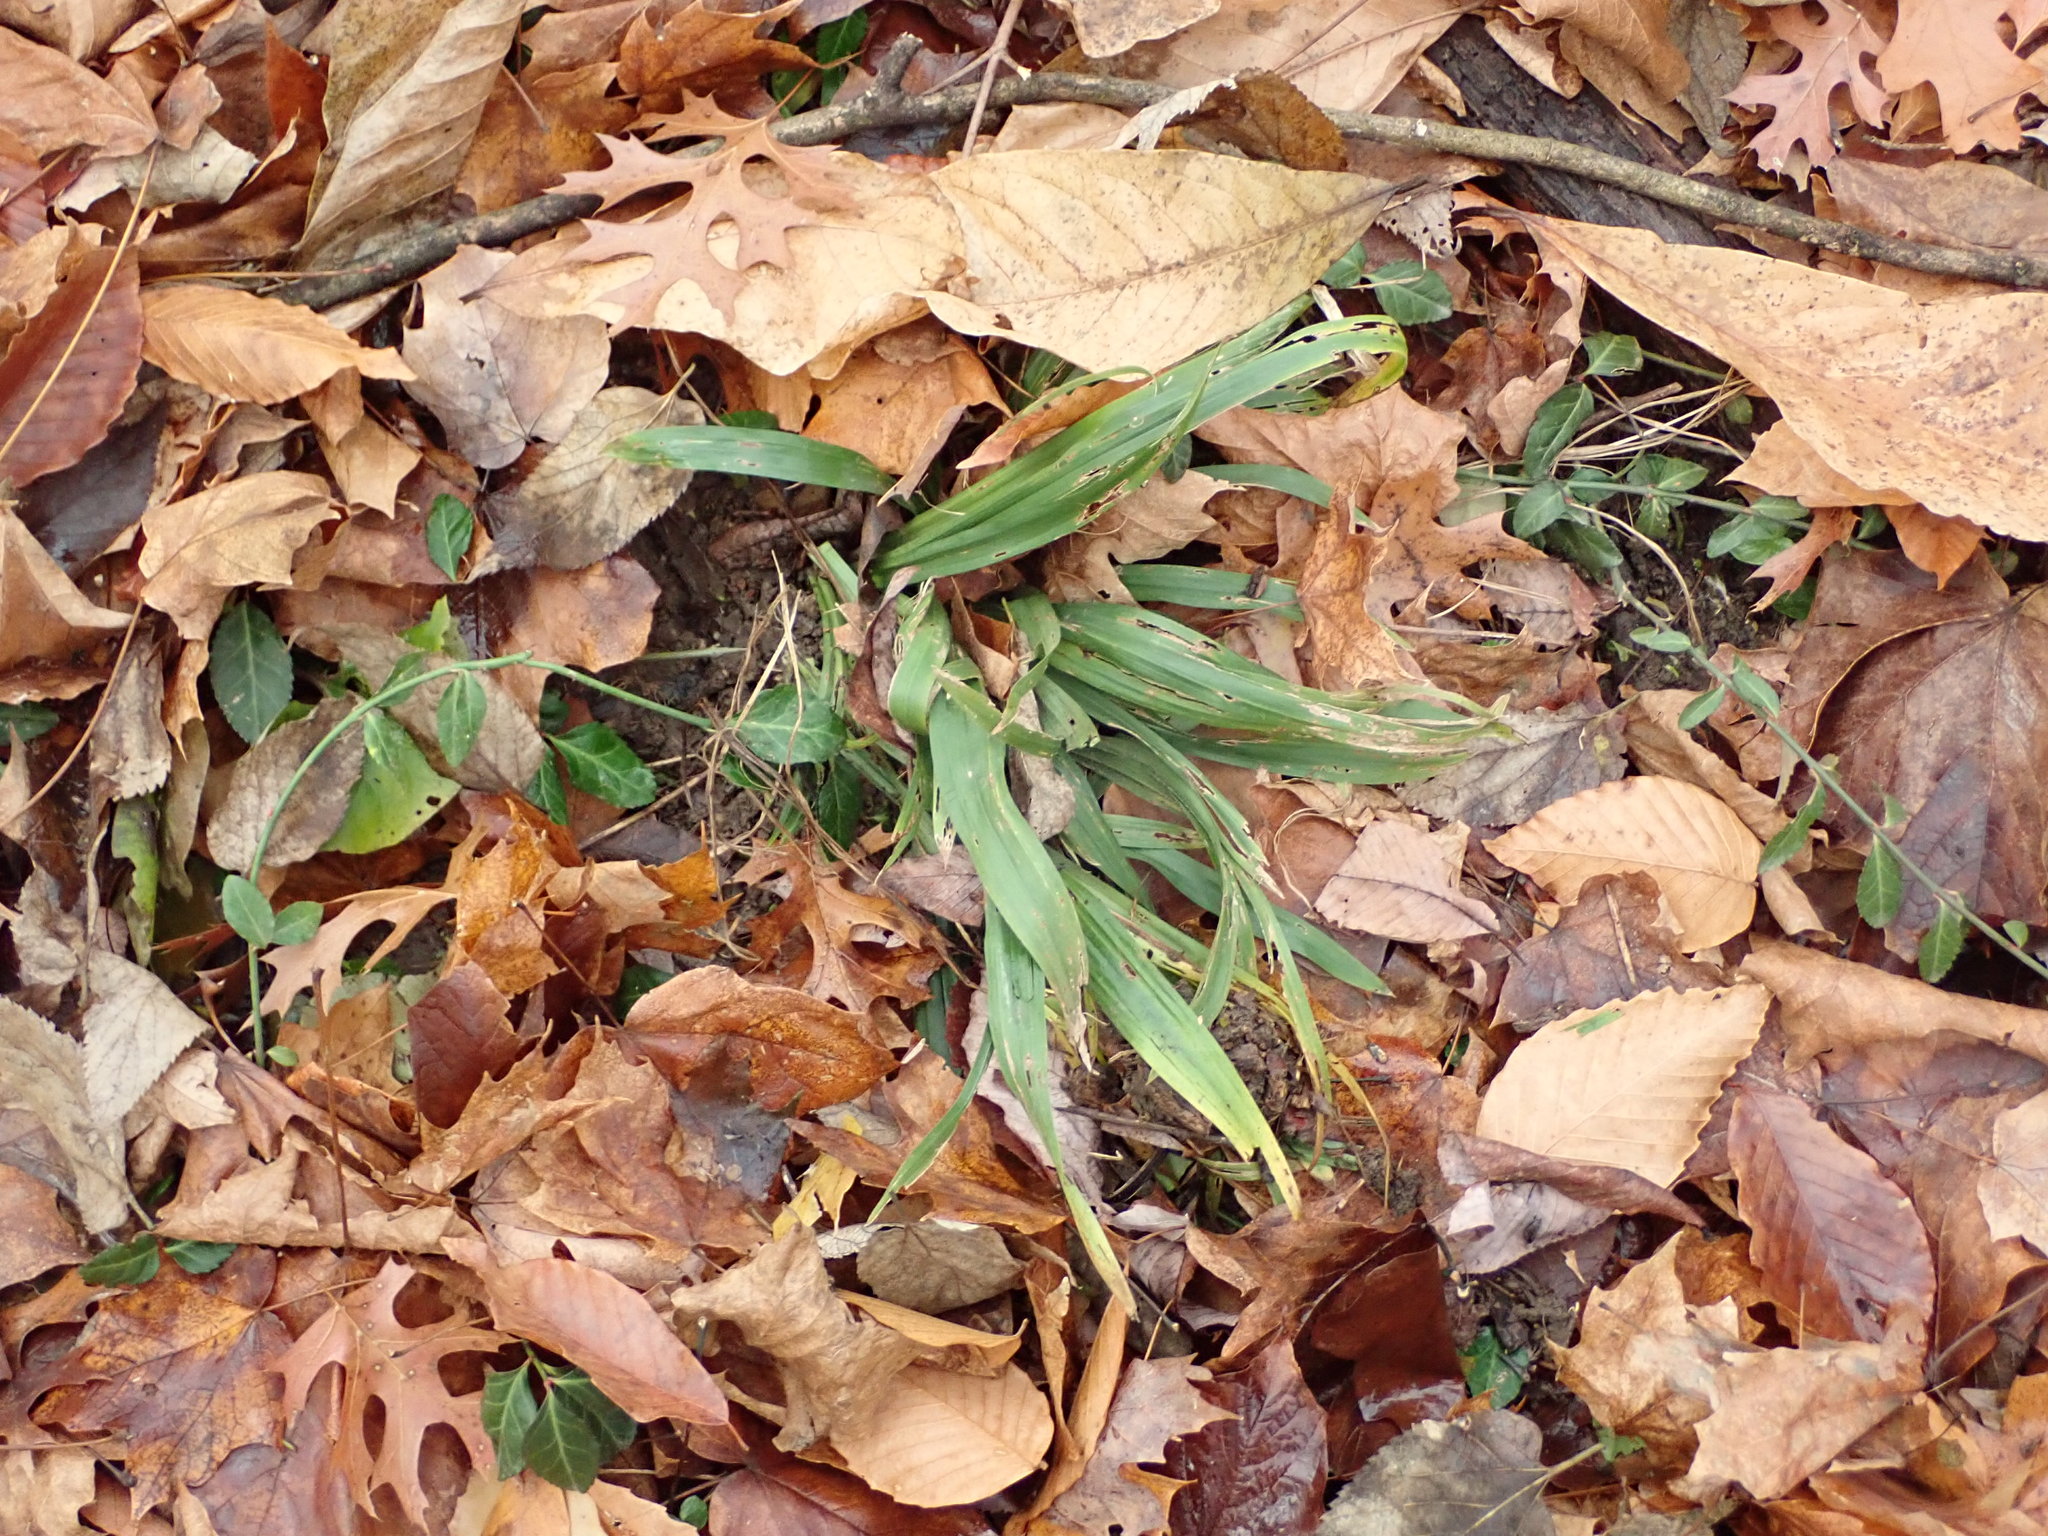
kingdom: Plantae
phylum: Tracheophyta
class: Liliopsida
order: Poales
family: Cyperaceae
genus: Carex
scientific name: Carex albursina
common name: Blunt-scale wood sedge
